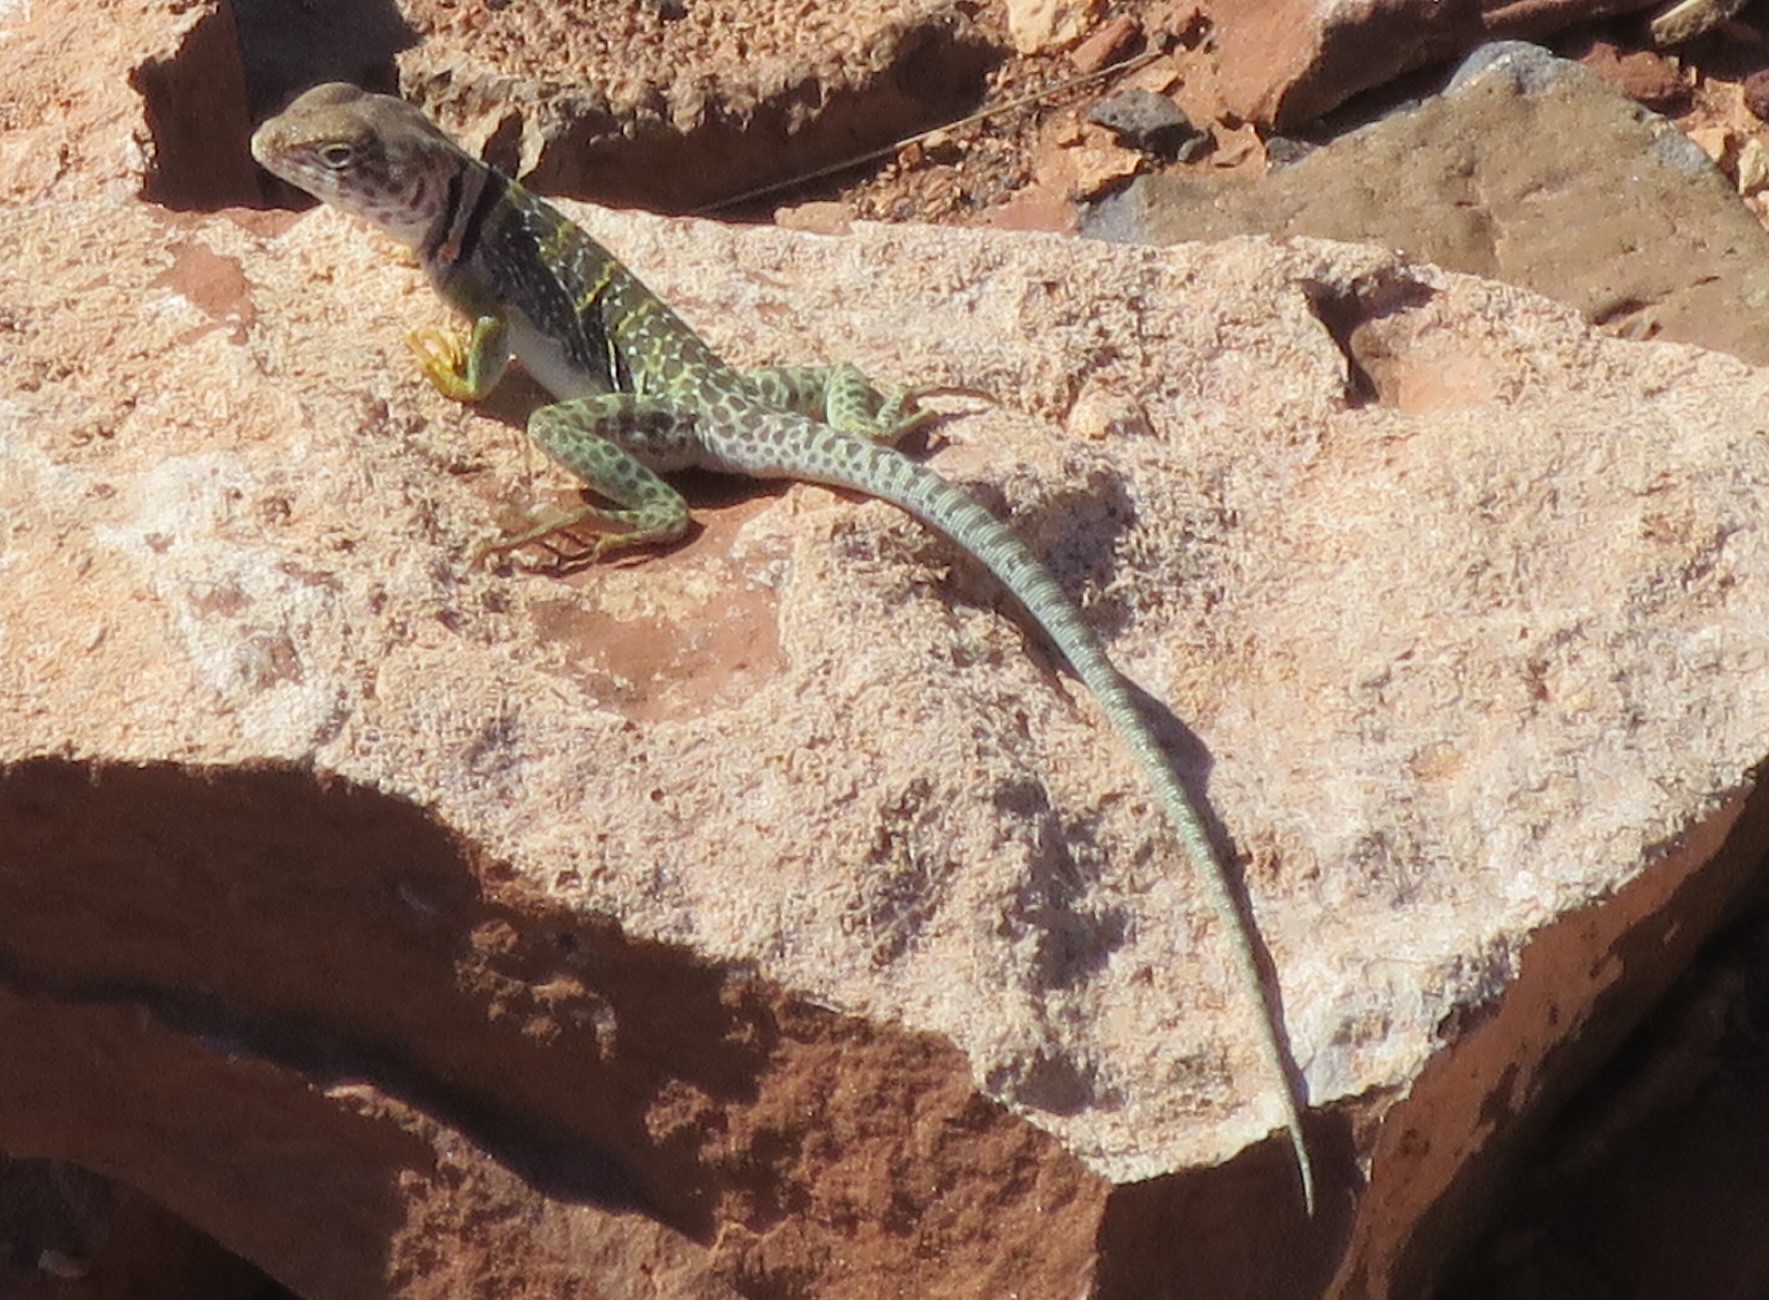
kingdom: Animalia
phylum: Chordata
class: Squamata
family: Crotaphytidae
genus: Crotaphytus
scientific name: Crotaphytus collaris
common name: Collared lizard
